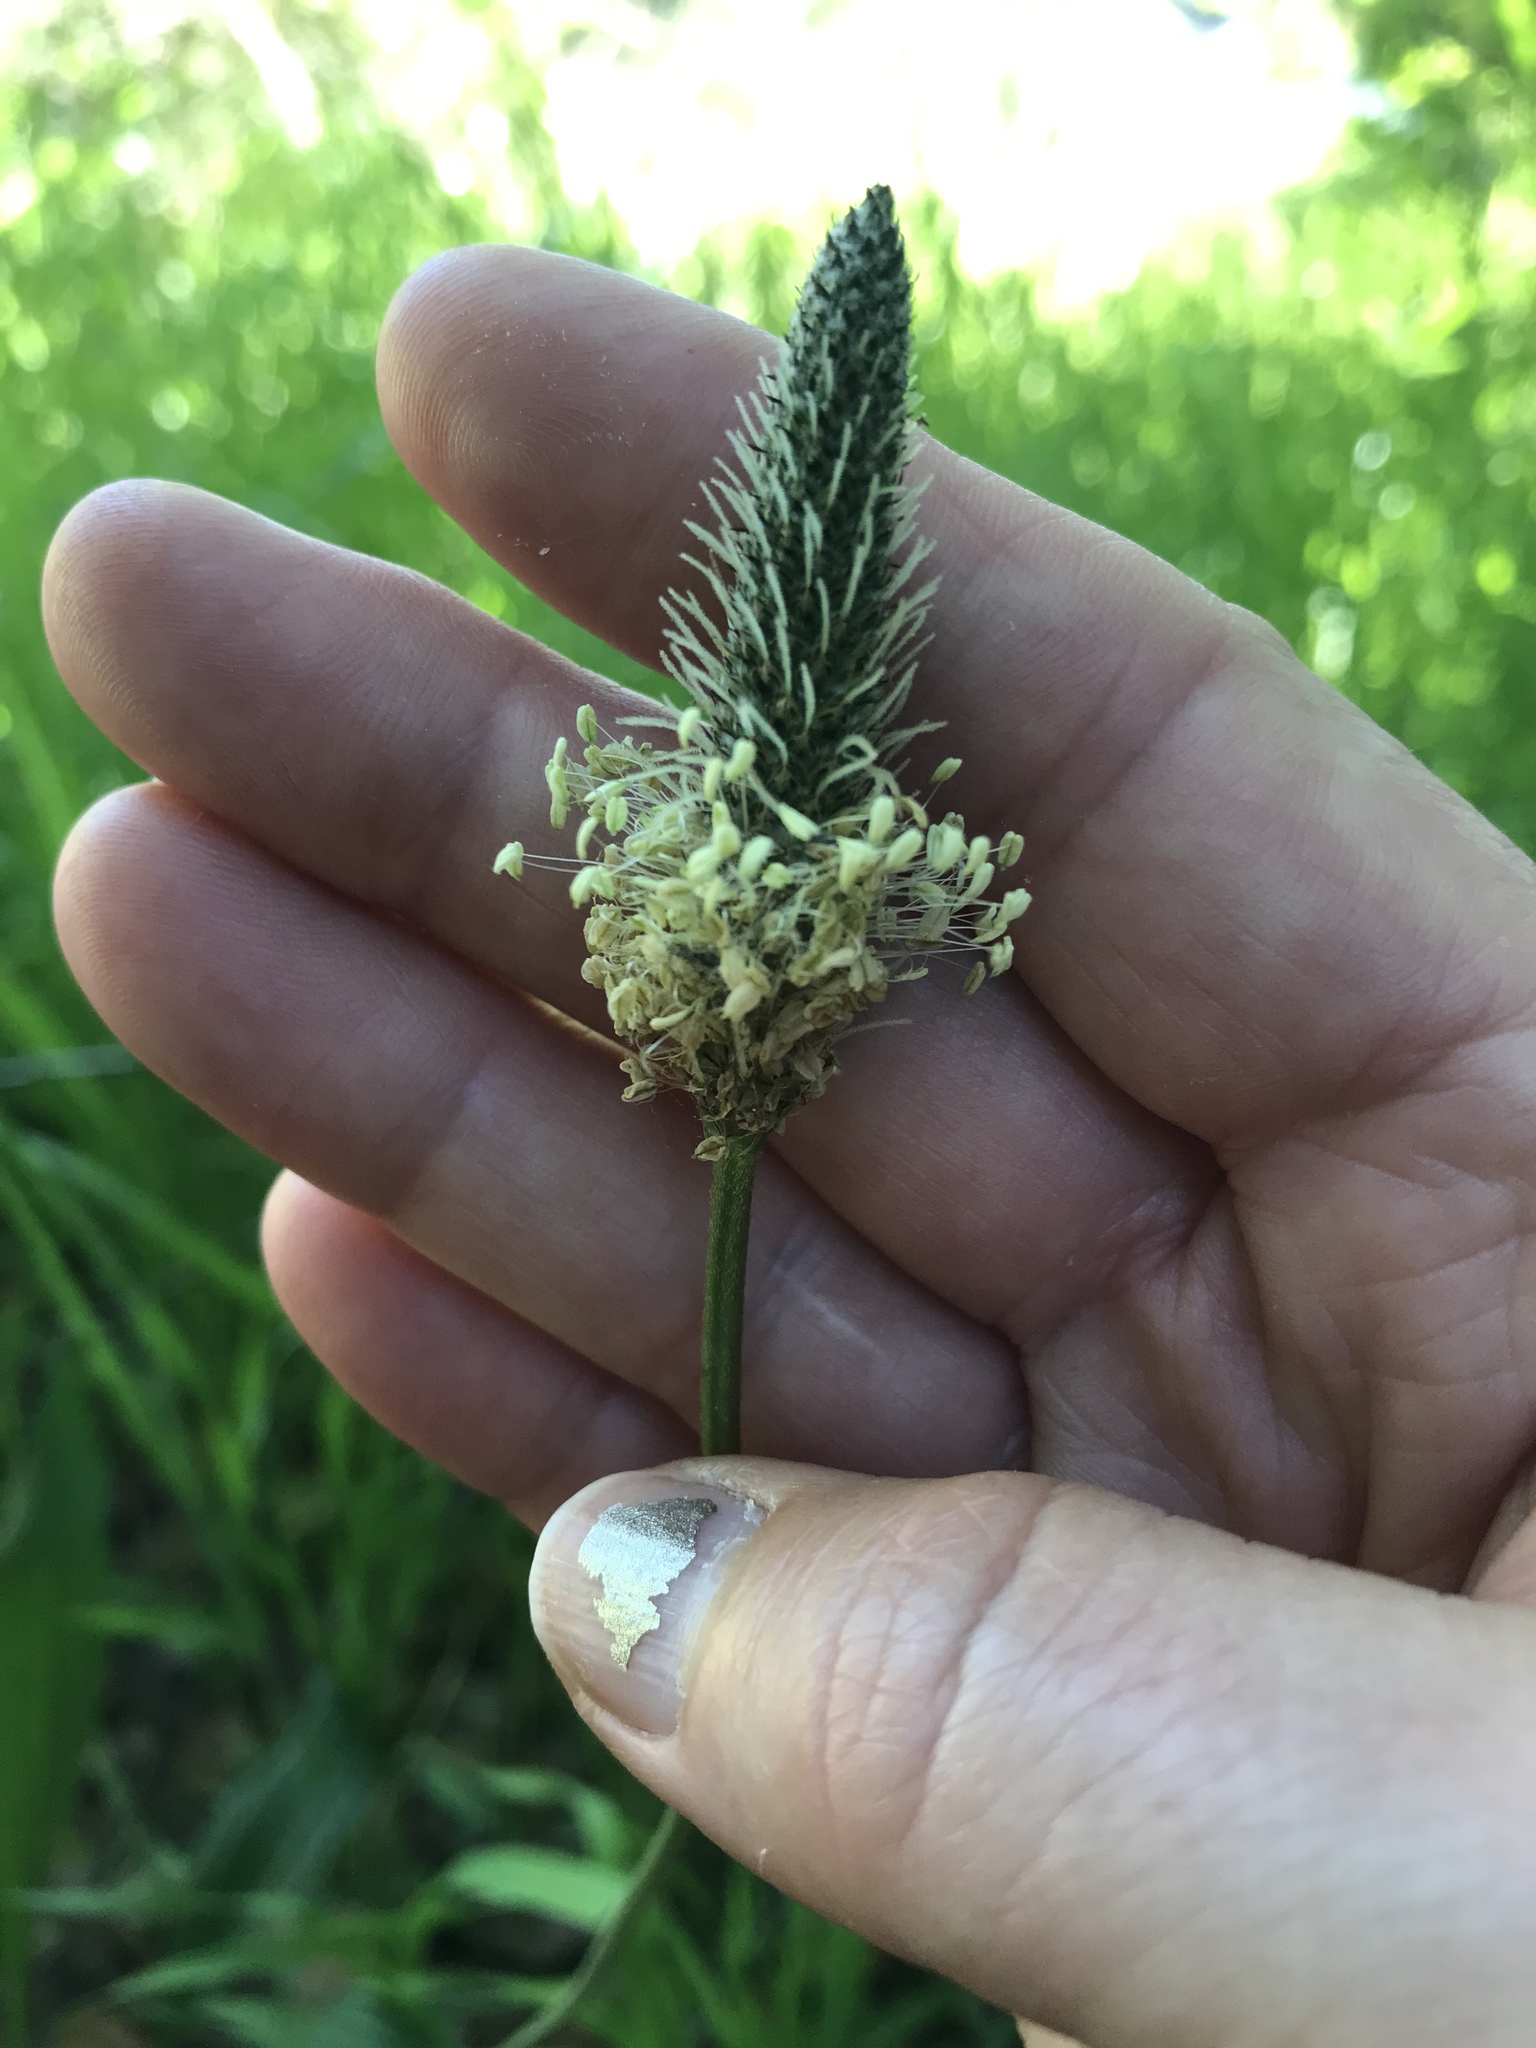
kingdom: Plantae
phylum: Tracheophyta
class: Magnoliopsida
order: Lamiales
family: Plantaginaceae
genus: Plantago
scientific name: Plantago lanceolata
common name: Ribwort plantain
